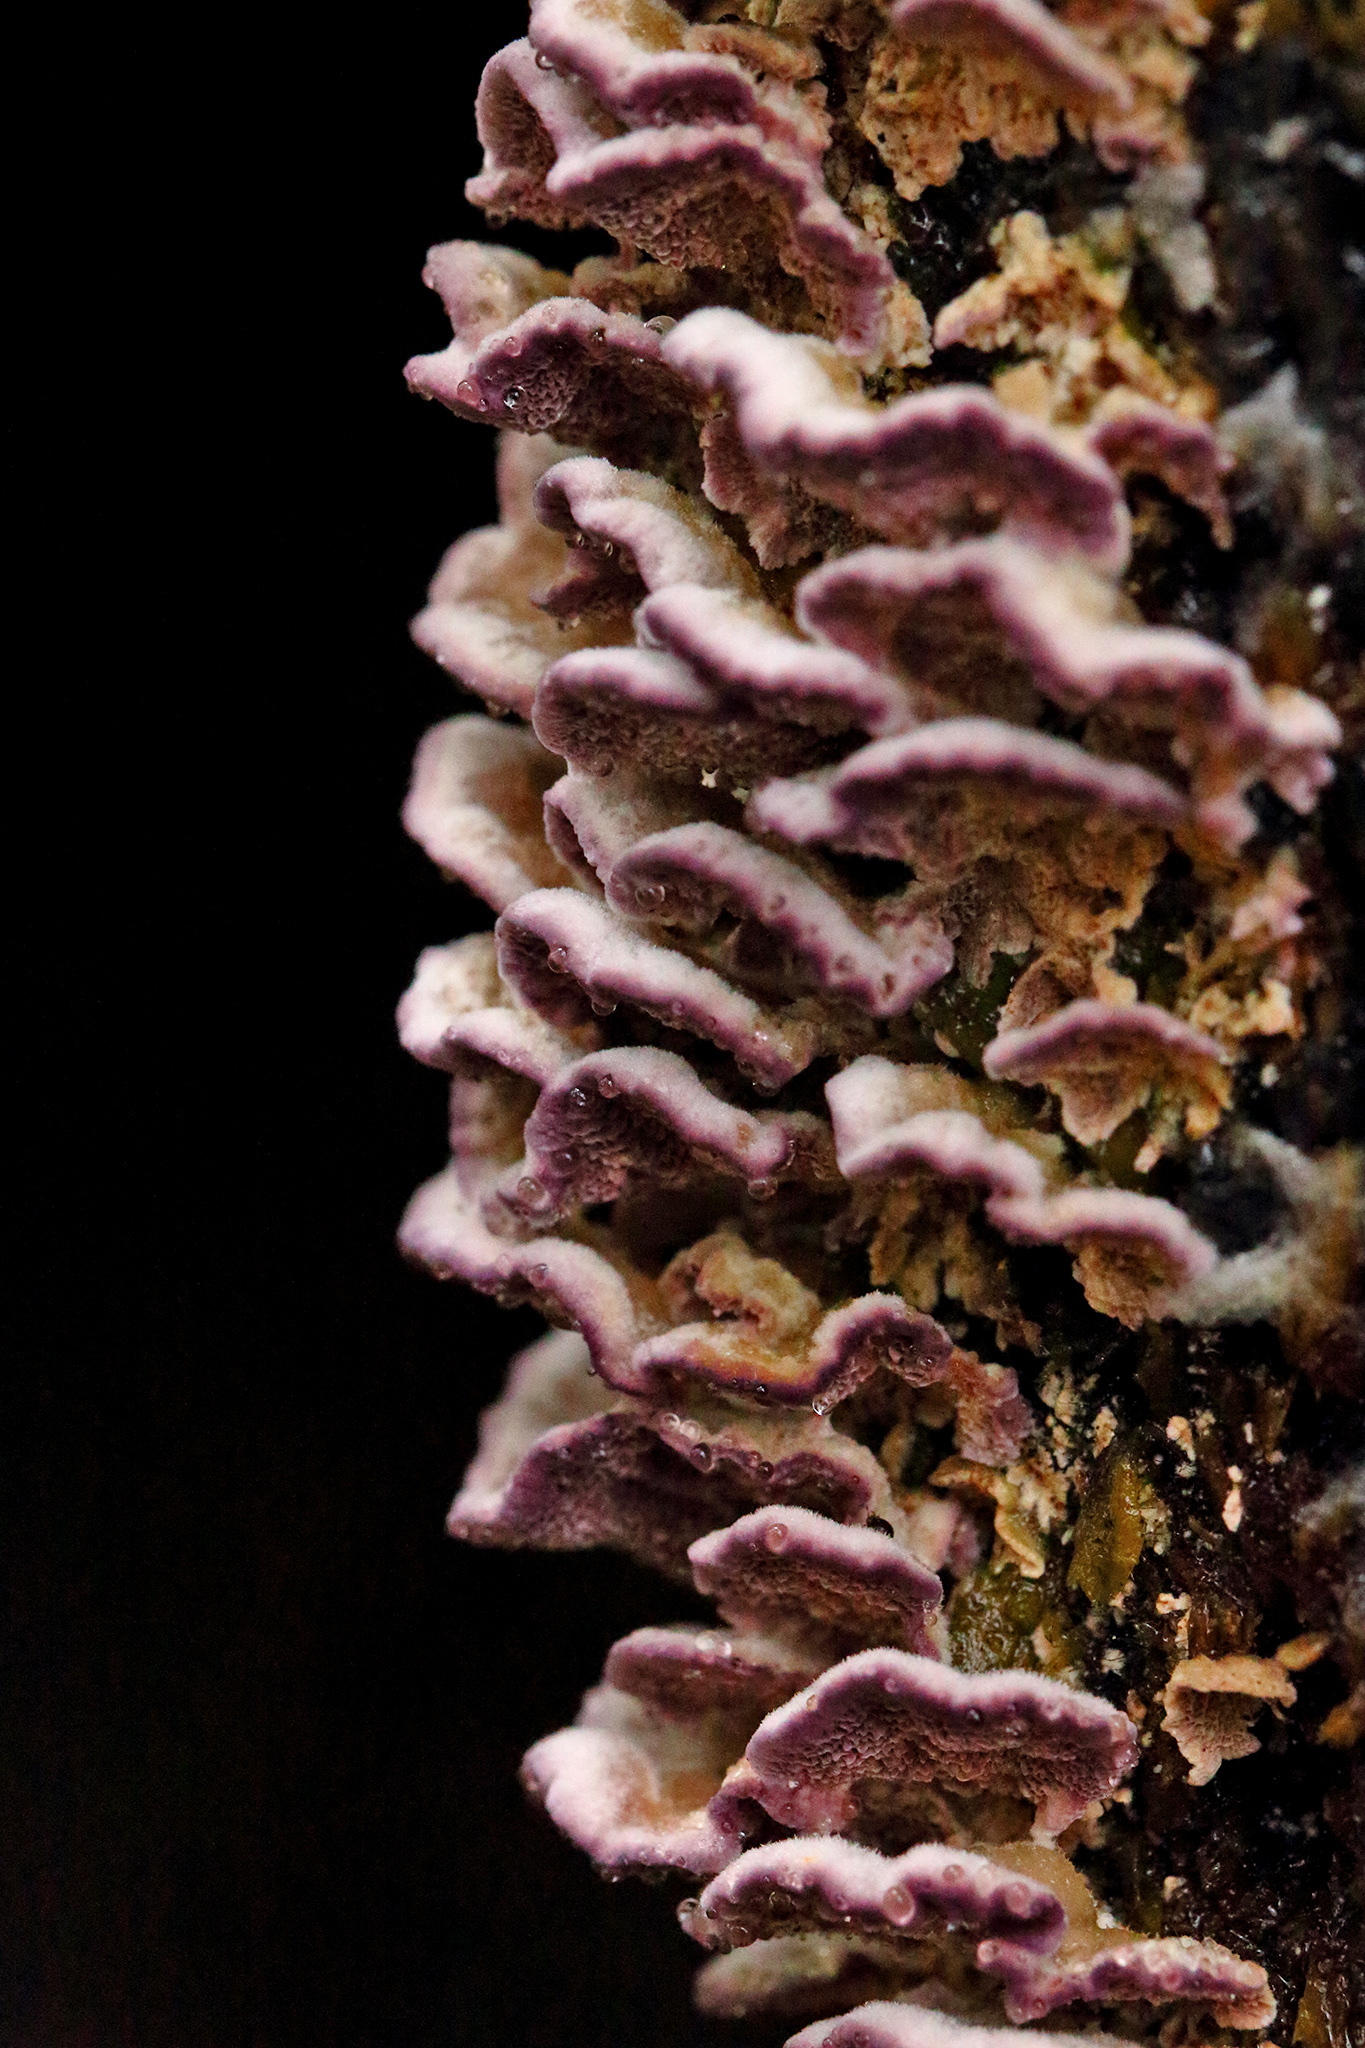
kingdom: Fungi
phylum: Basidiomycota
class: Agaricomycetes
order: Agaricales
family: Cyphellaceae
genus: Chondrostereum
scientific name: Chondrostereum purpureum
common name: Silver leaf disease
